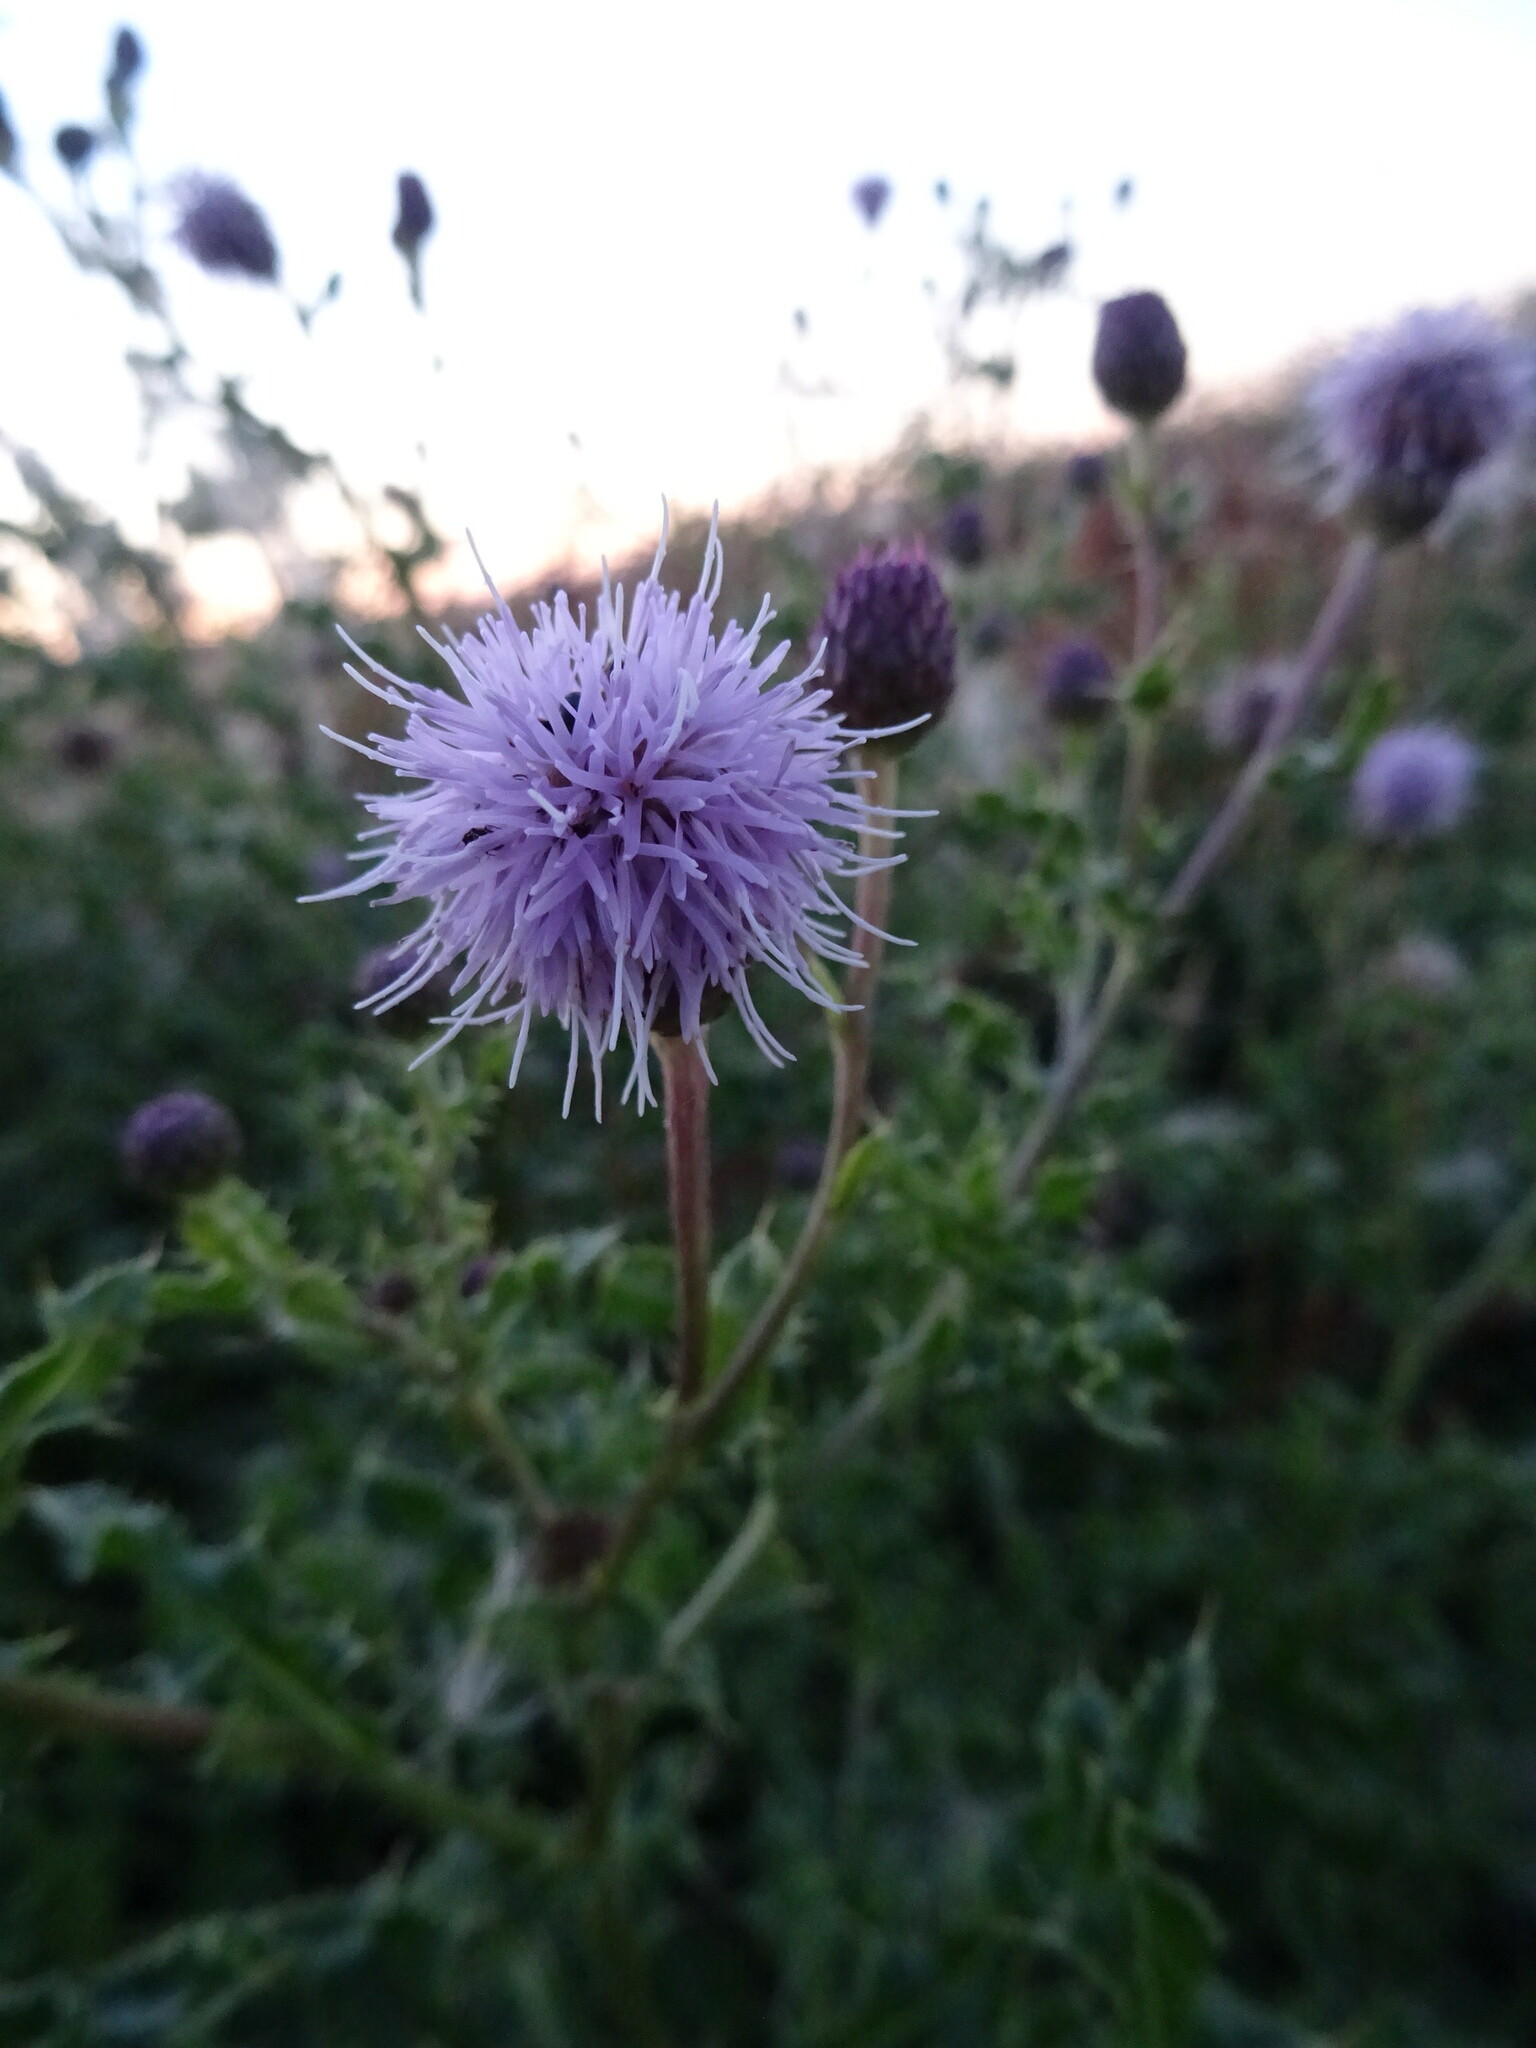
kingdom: Plantae
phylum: Tracheophyta
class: Magnoliopsida
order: Asterales
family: Asteraceae
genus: Cirsium
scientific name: Cirsium arvense
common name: Creeping thistle
